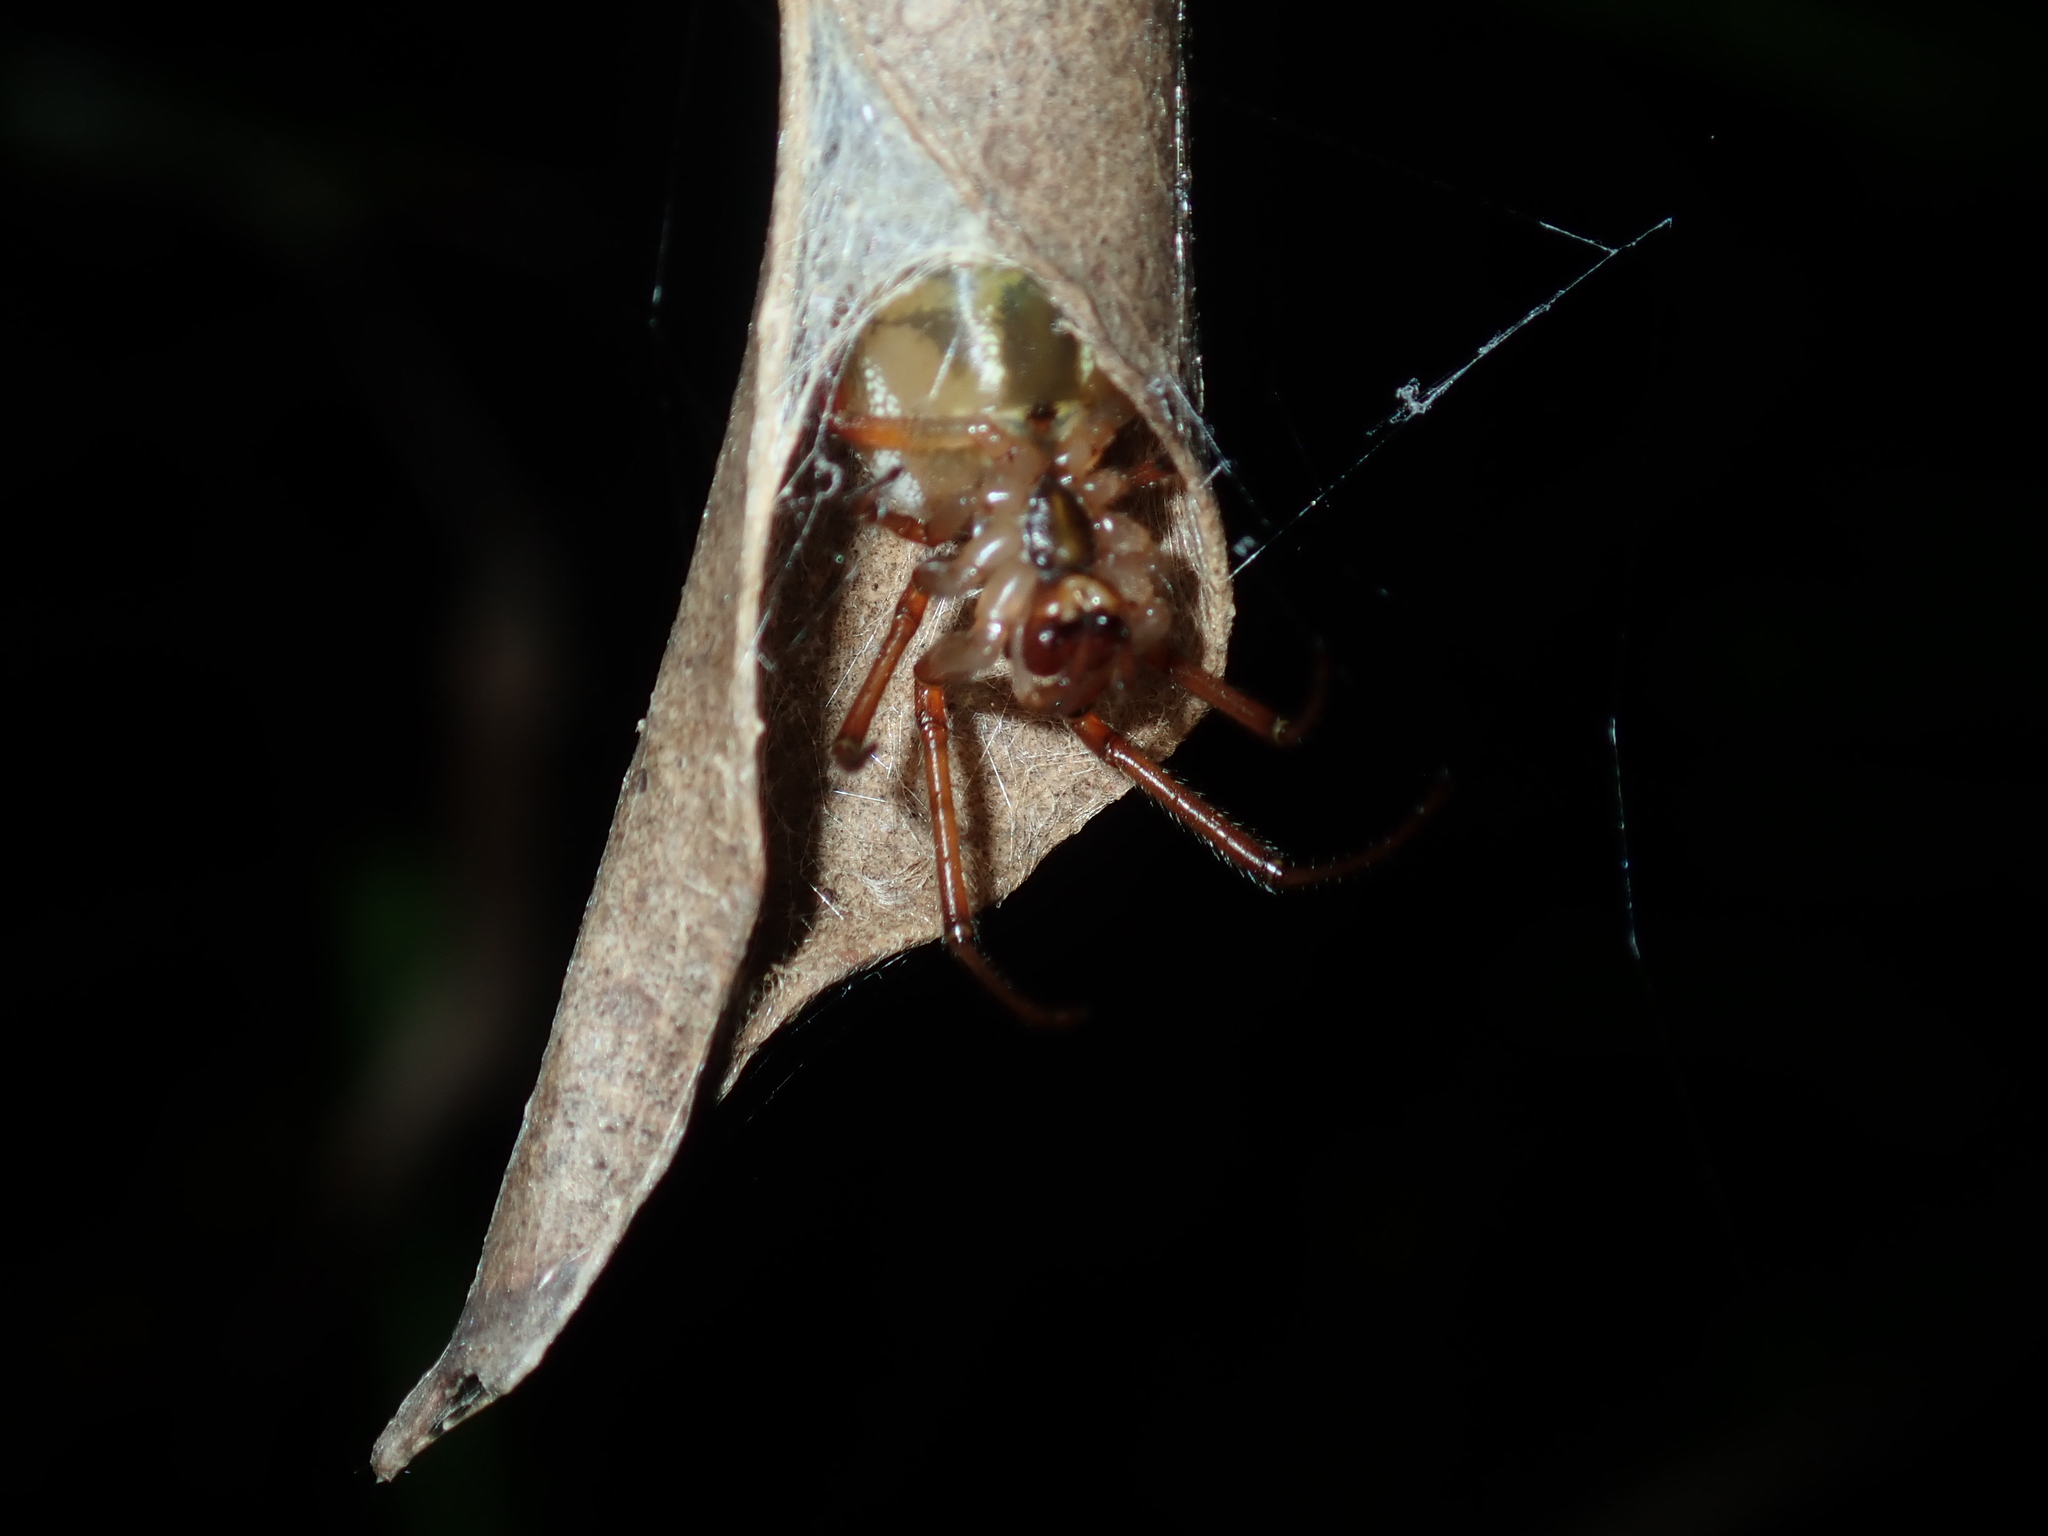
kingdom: Animalia
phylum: Arthropoda
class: Arachnida
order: Araneae
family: Araneidae
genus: Phonognatha
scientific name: Phonognatha graeffei
